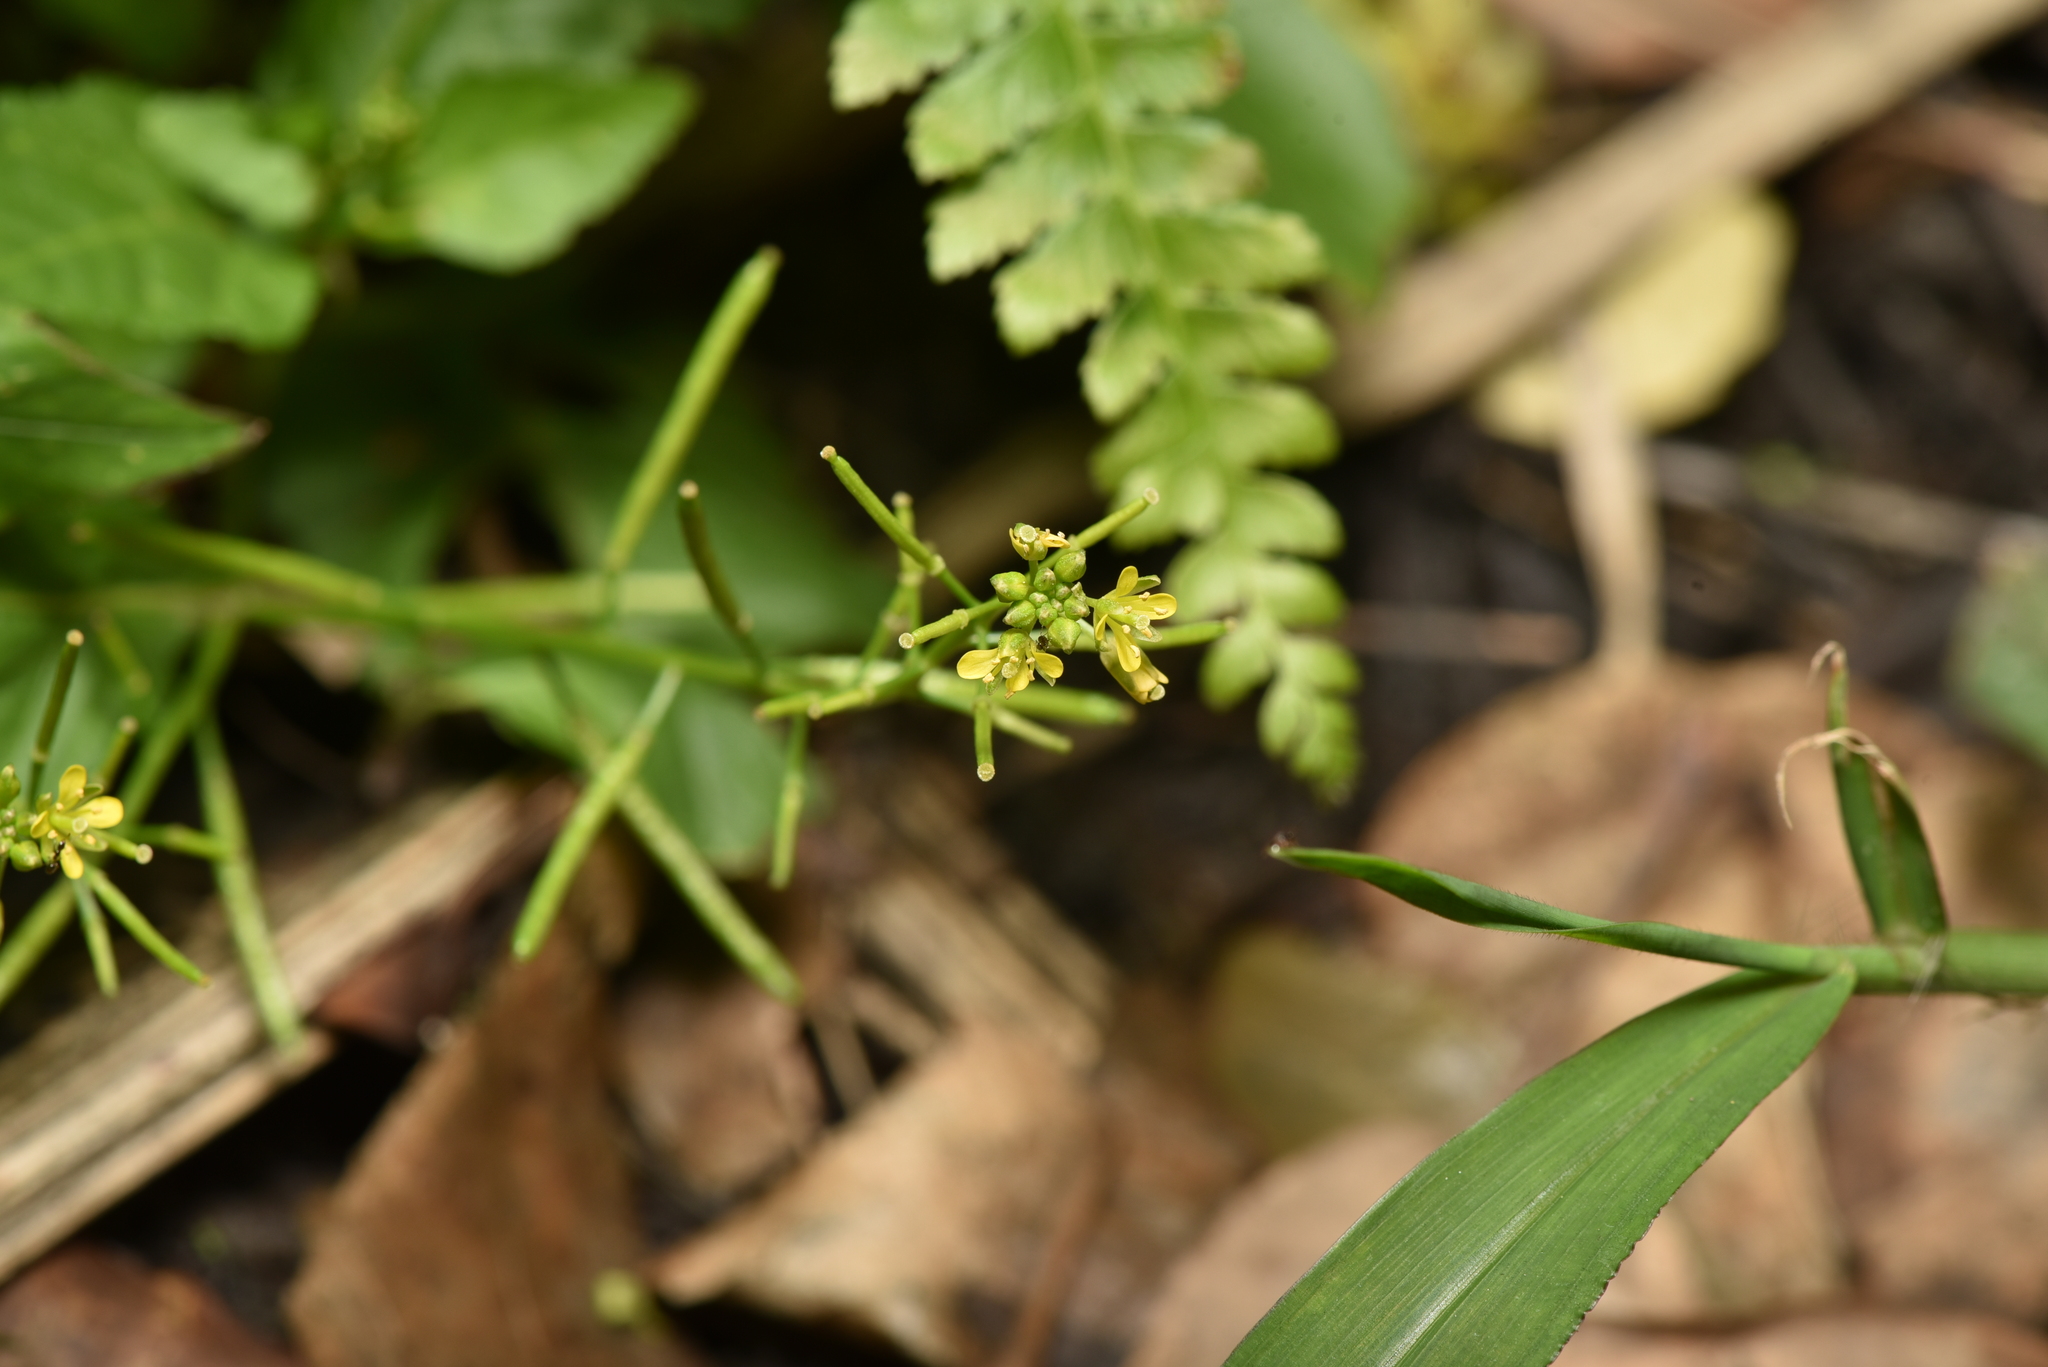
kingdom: Plantae
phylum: Tracheophyta
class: Magnoliopsida
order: Brassicales
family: Brassicaceae
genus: Rorippa
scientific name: Rorippa indica
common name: Variableleaf yellowcress
